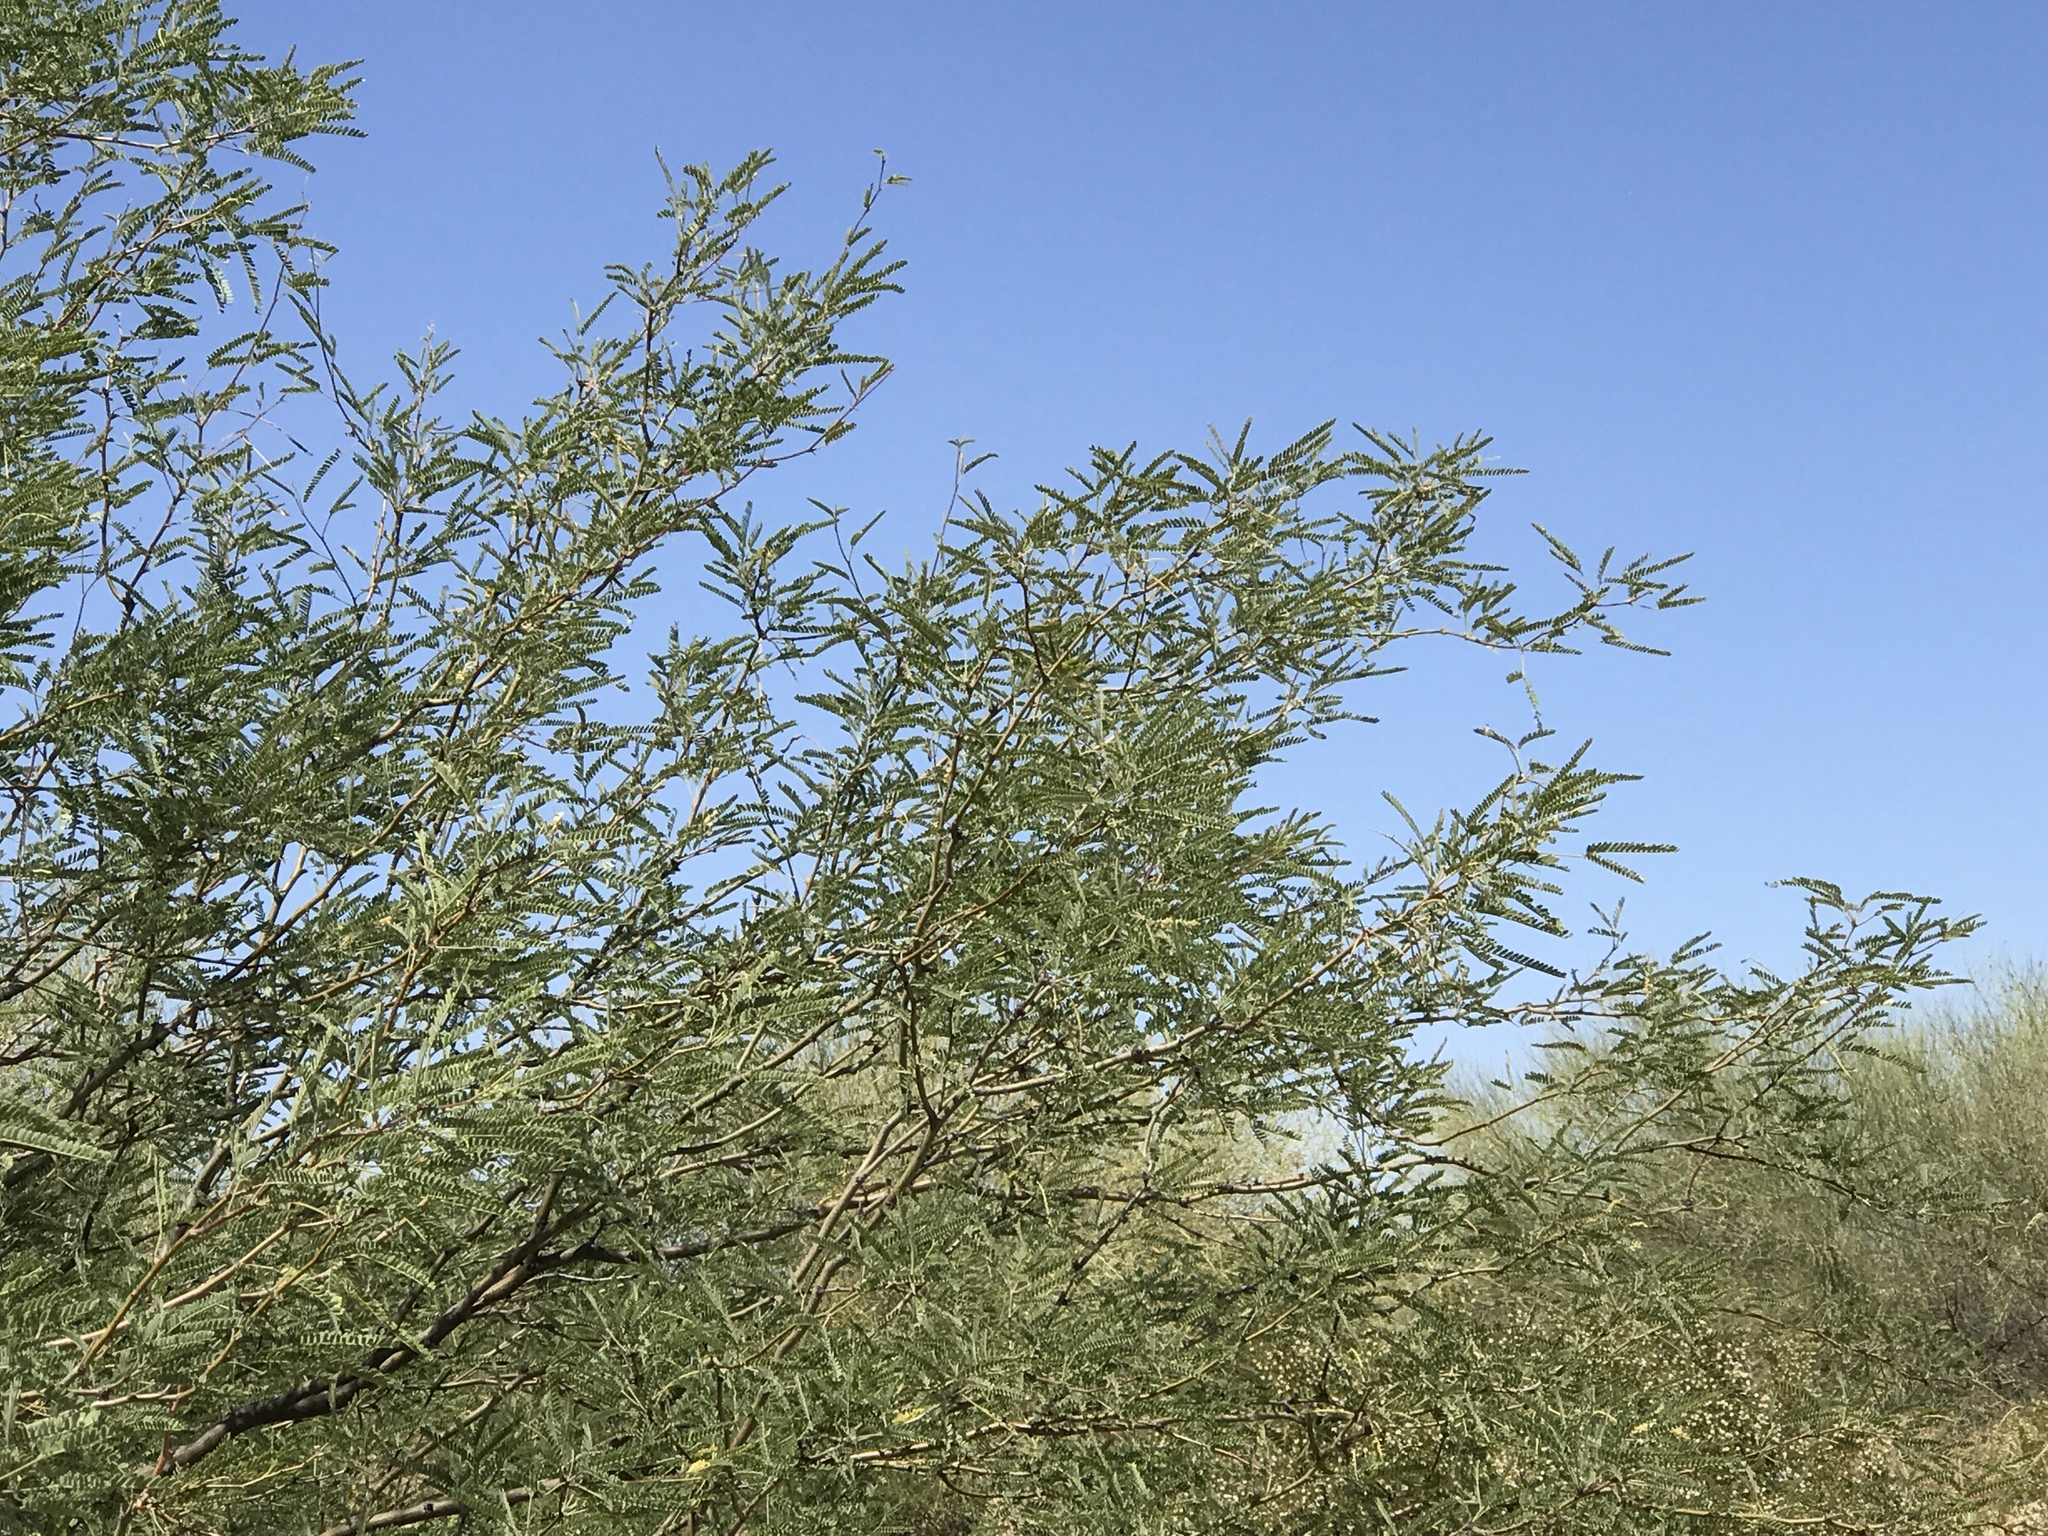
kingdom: Plantae
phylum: Tracheophyta
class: Magnoliopsida
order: Fabales
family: Fabaceae
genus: Prosopis
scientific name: Prosopis velutina
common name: Velvet mesquite
